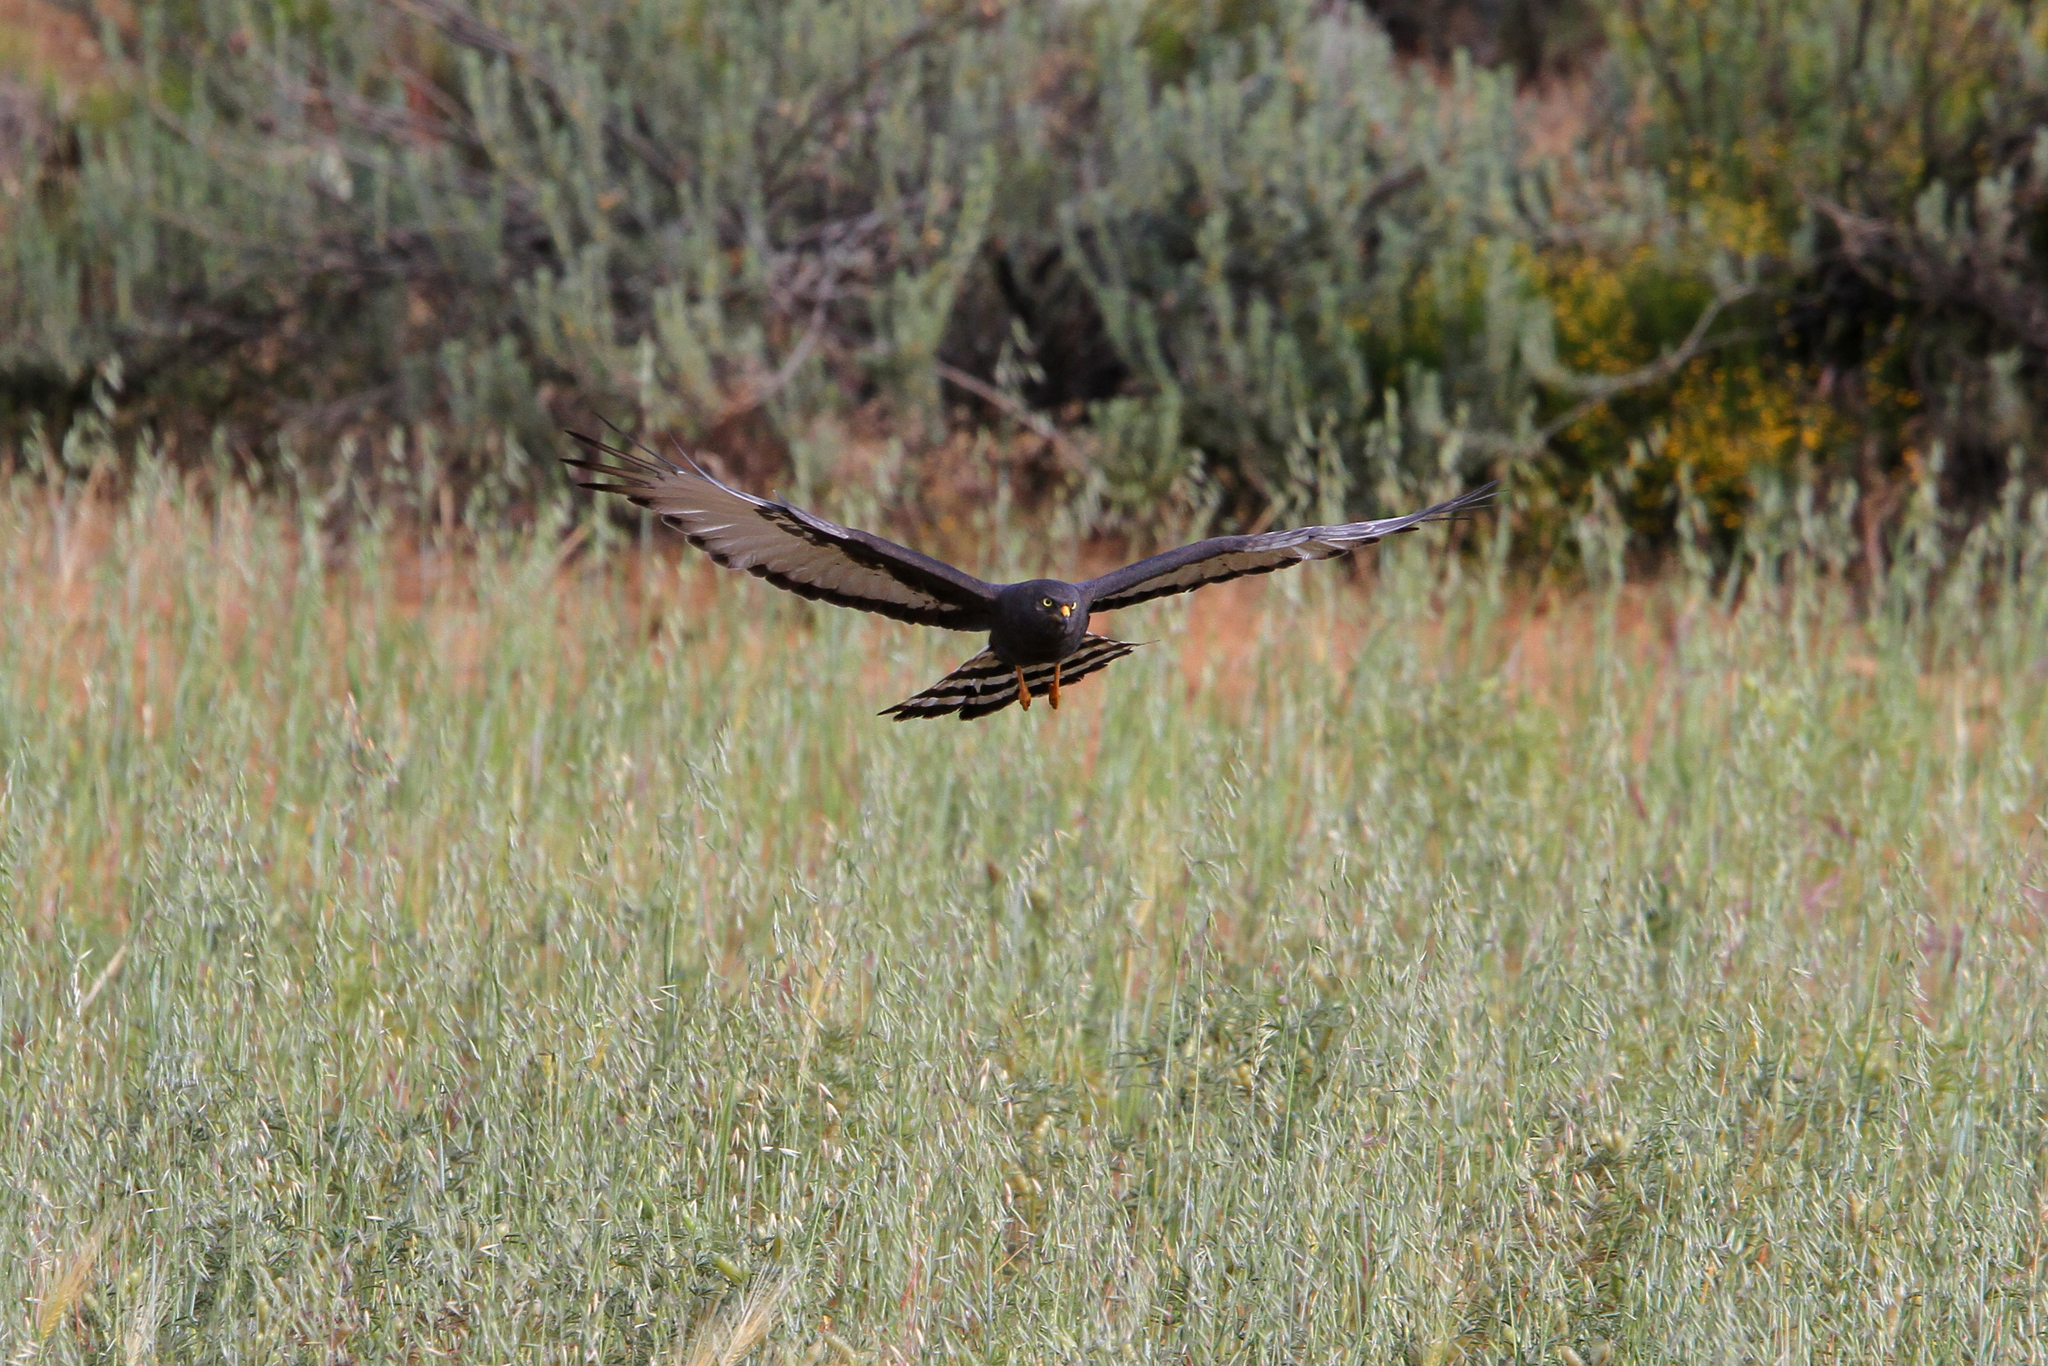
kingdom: Animalia
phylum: Chordata
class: Aves
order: Accipitriformes
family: Accipitridae
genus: Circus
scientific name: Circus maurus
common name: Black harrier
